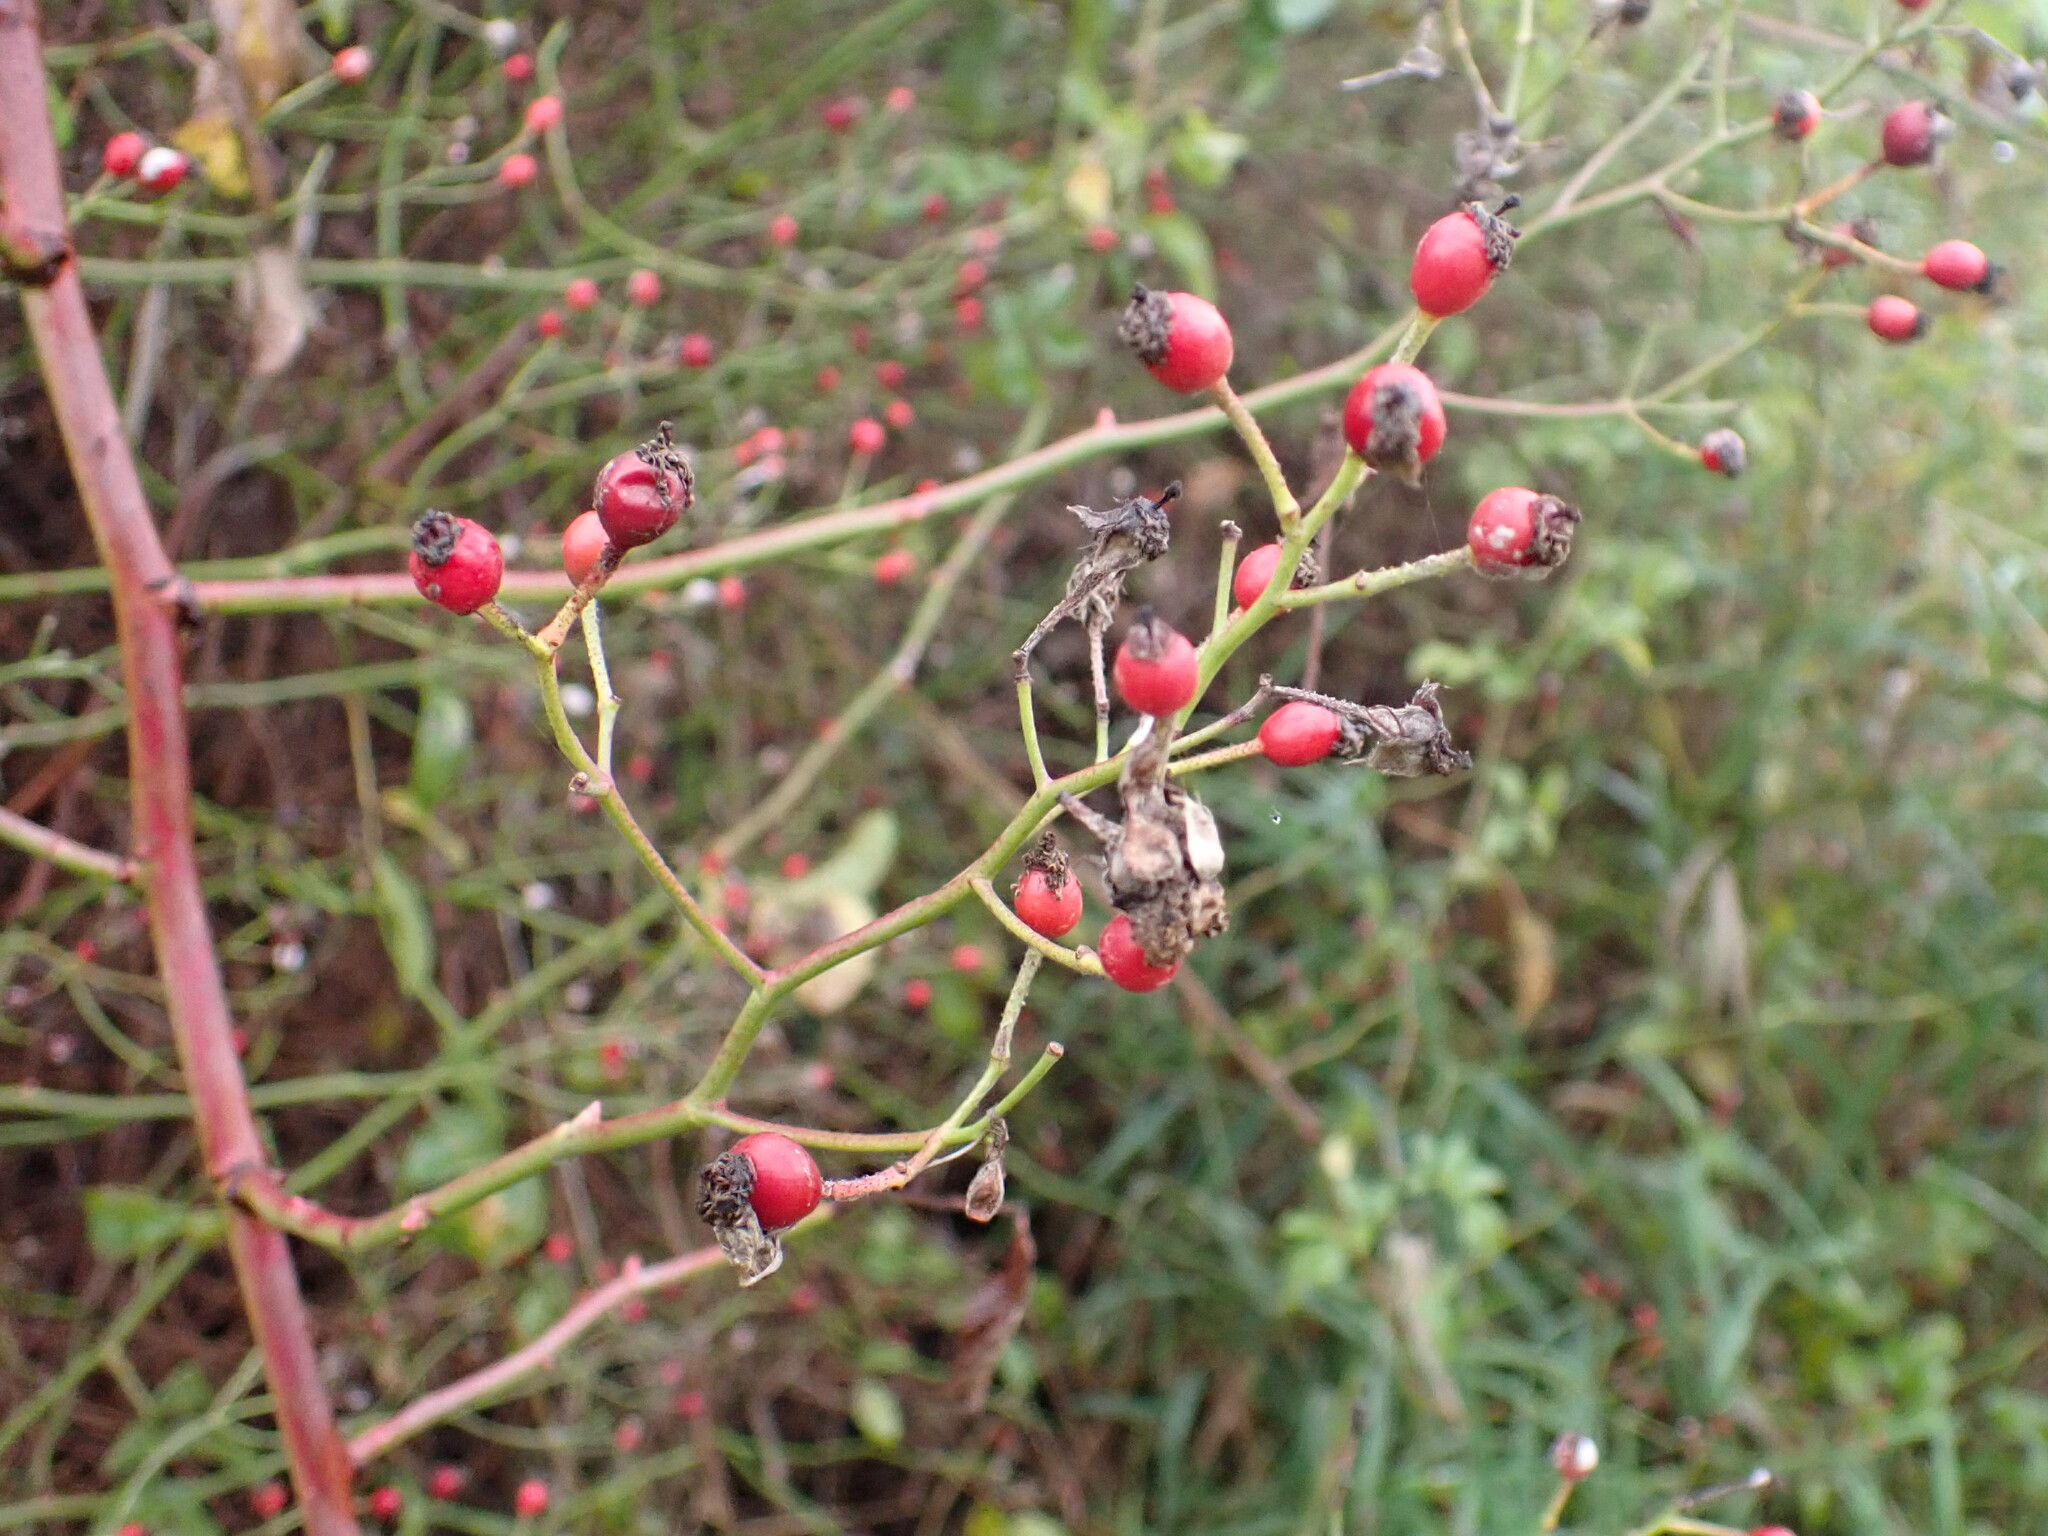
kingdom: Plantae
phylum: Tracheophyta
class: Magnoliopsida
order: Rosales
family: Rosaceae
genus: Rosa
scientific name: Rosa multiflora
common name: Multiflora rose
